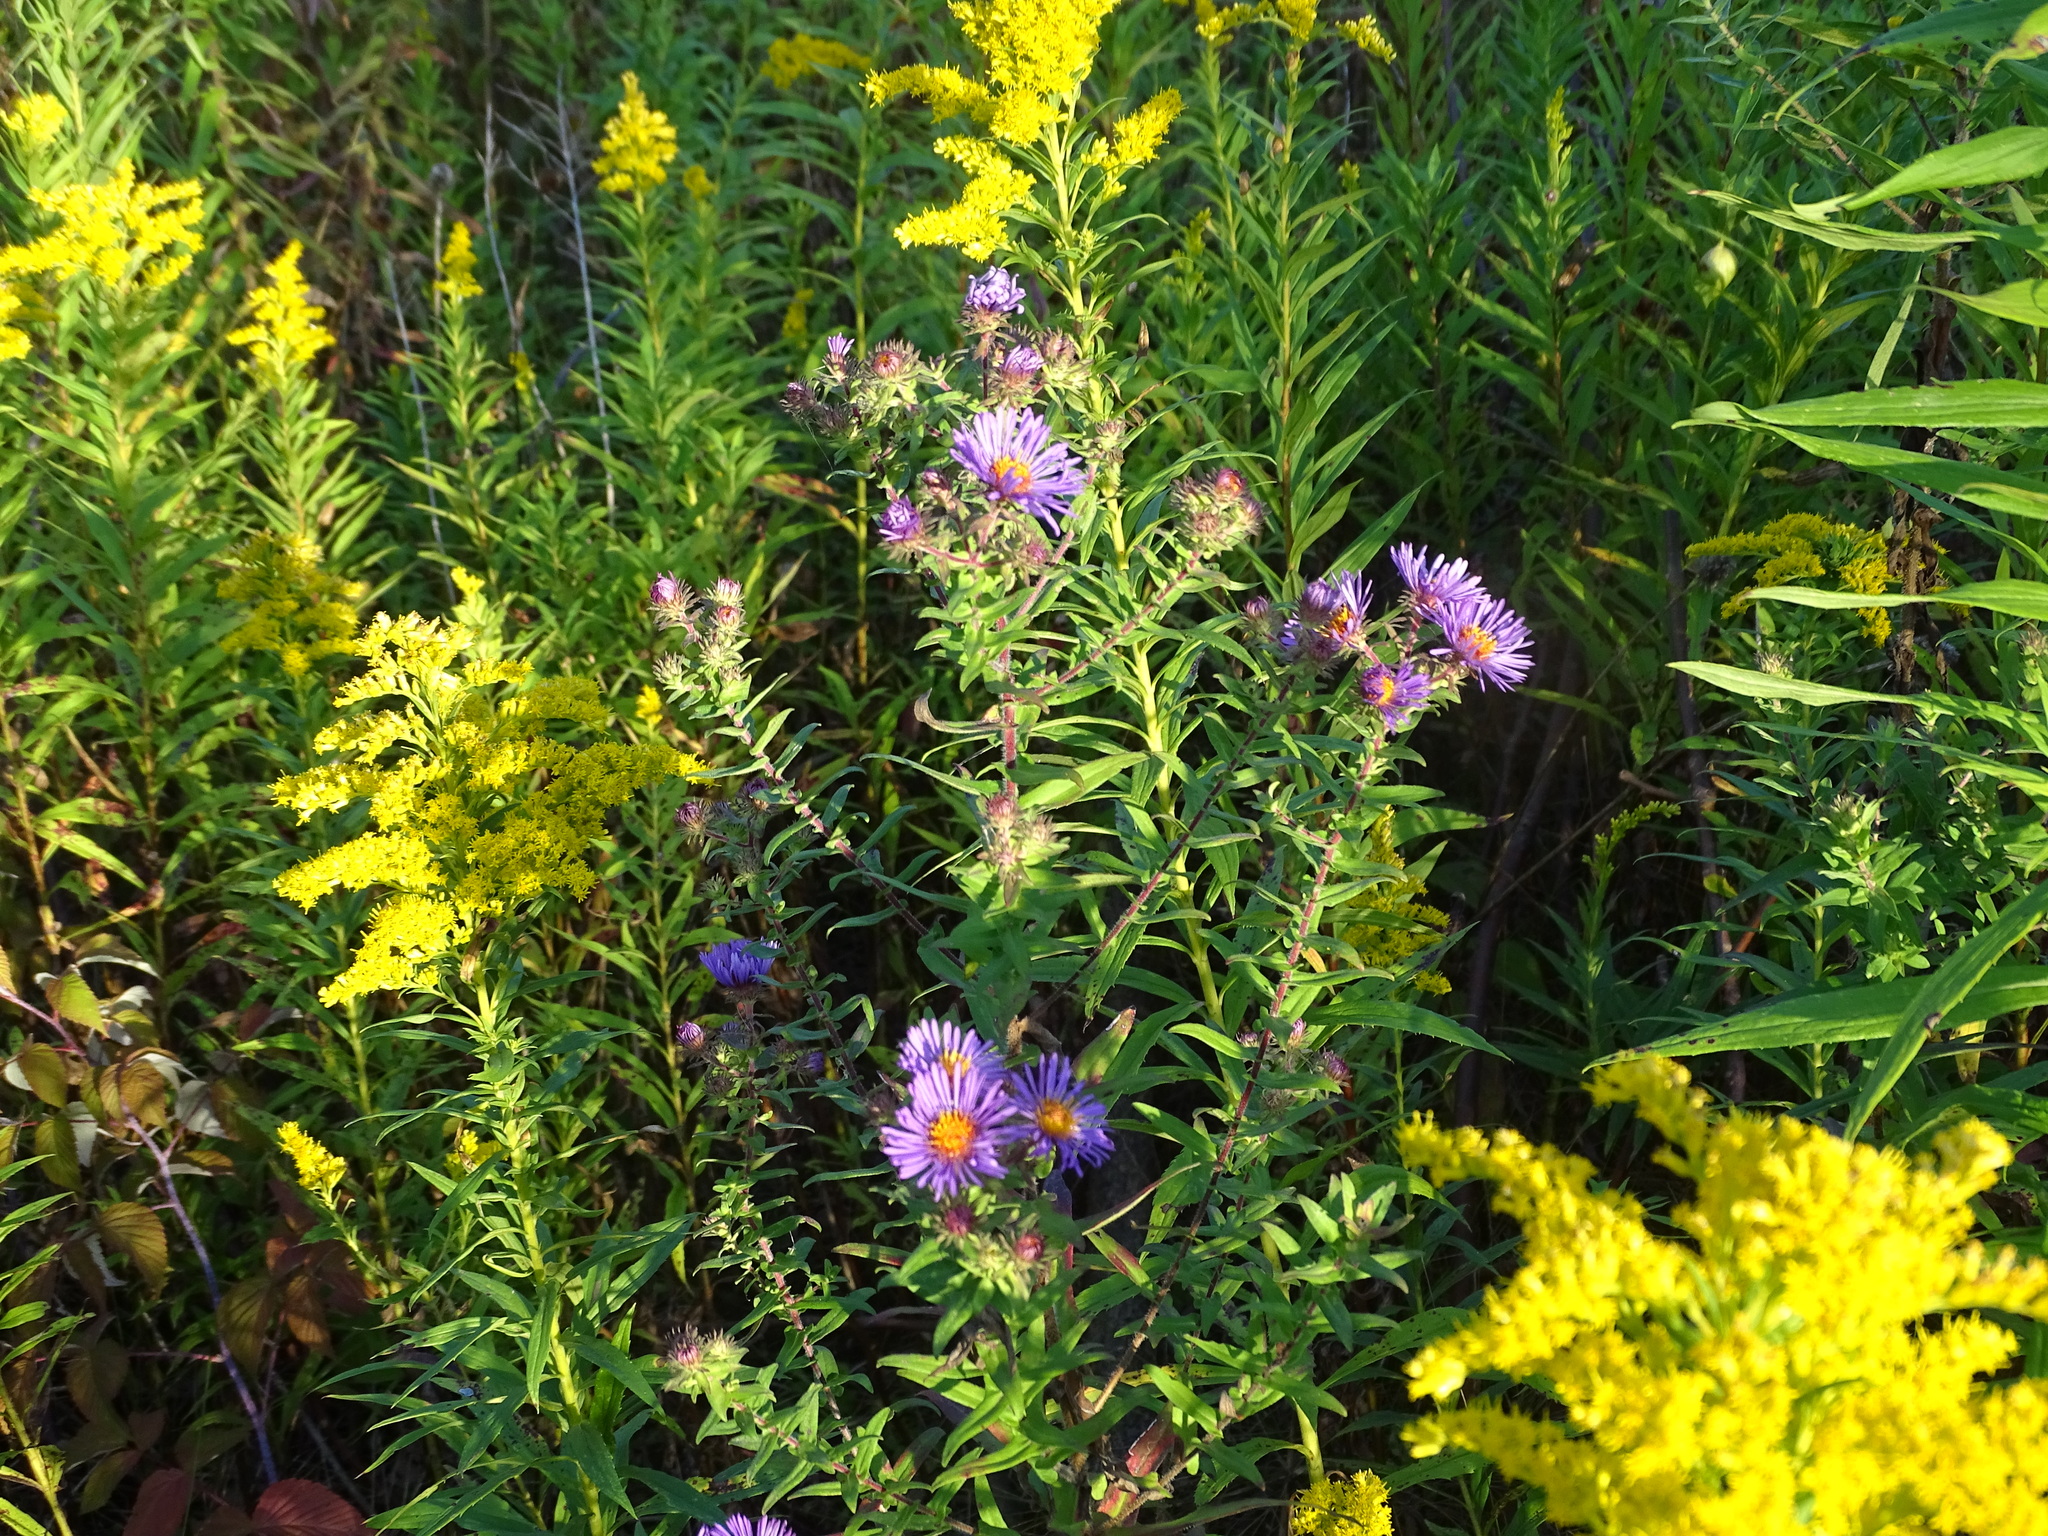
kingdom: Plantae
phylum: Tracheophyta
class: Magnoliopsida
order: Asterales
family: Asteraceae
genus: Symphyotrichum
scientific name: Symphyotrichum novae-angliae
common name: Michaelmas daisy
